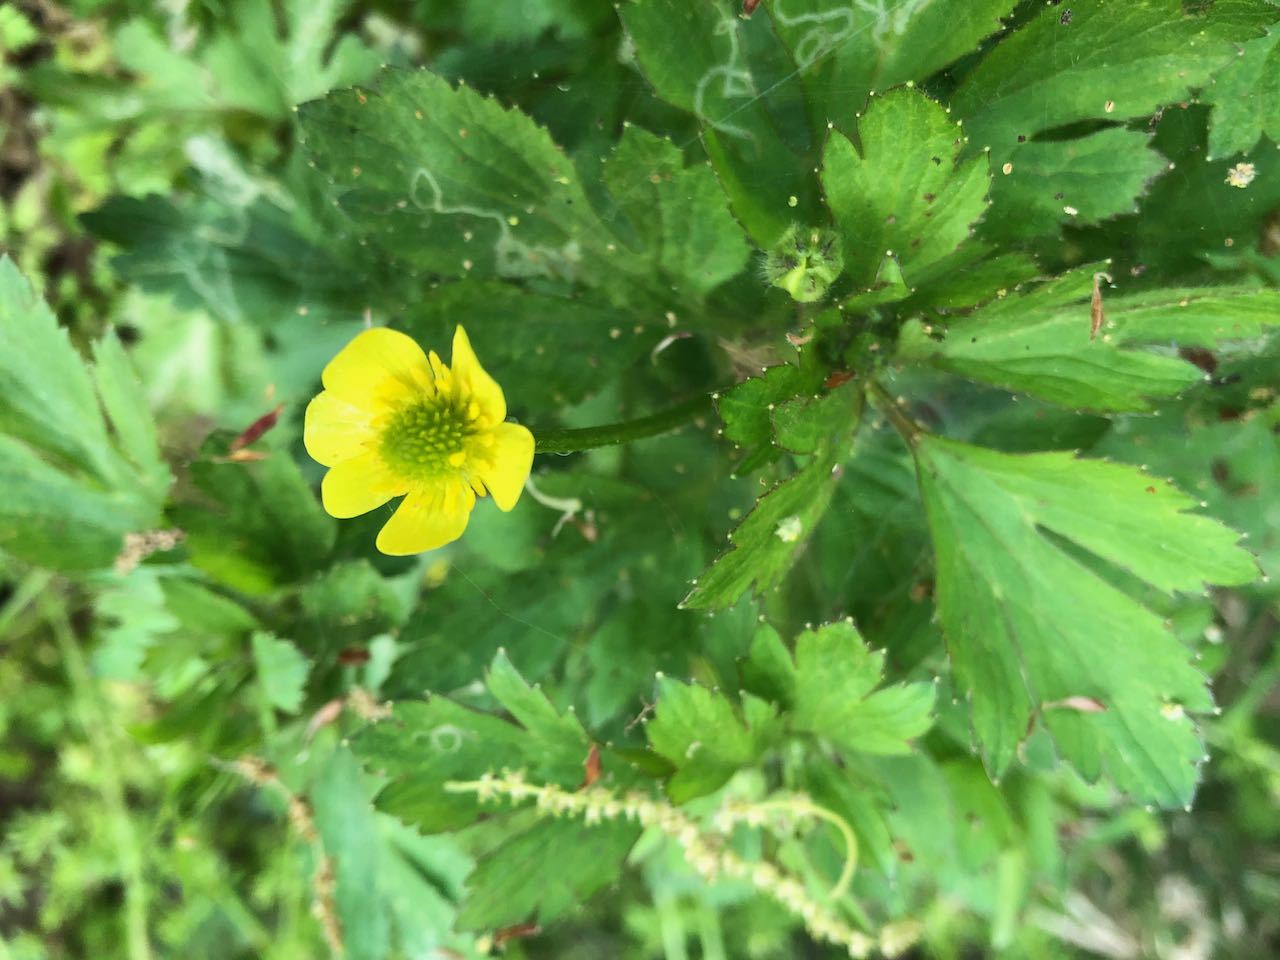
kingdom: Plantae
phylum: Tracheophyta
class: Magnoliopsida
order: Ranunculales
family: Ranunculaceae
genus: Ranunculus
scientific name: Ranunculus cantoniensis
